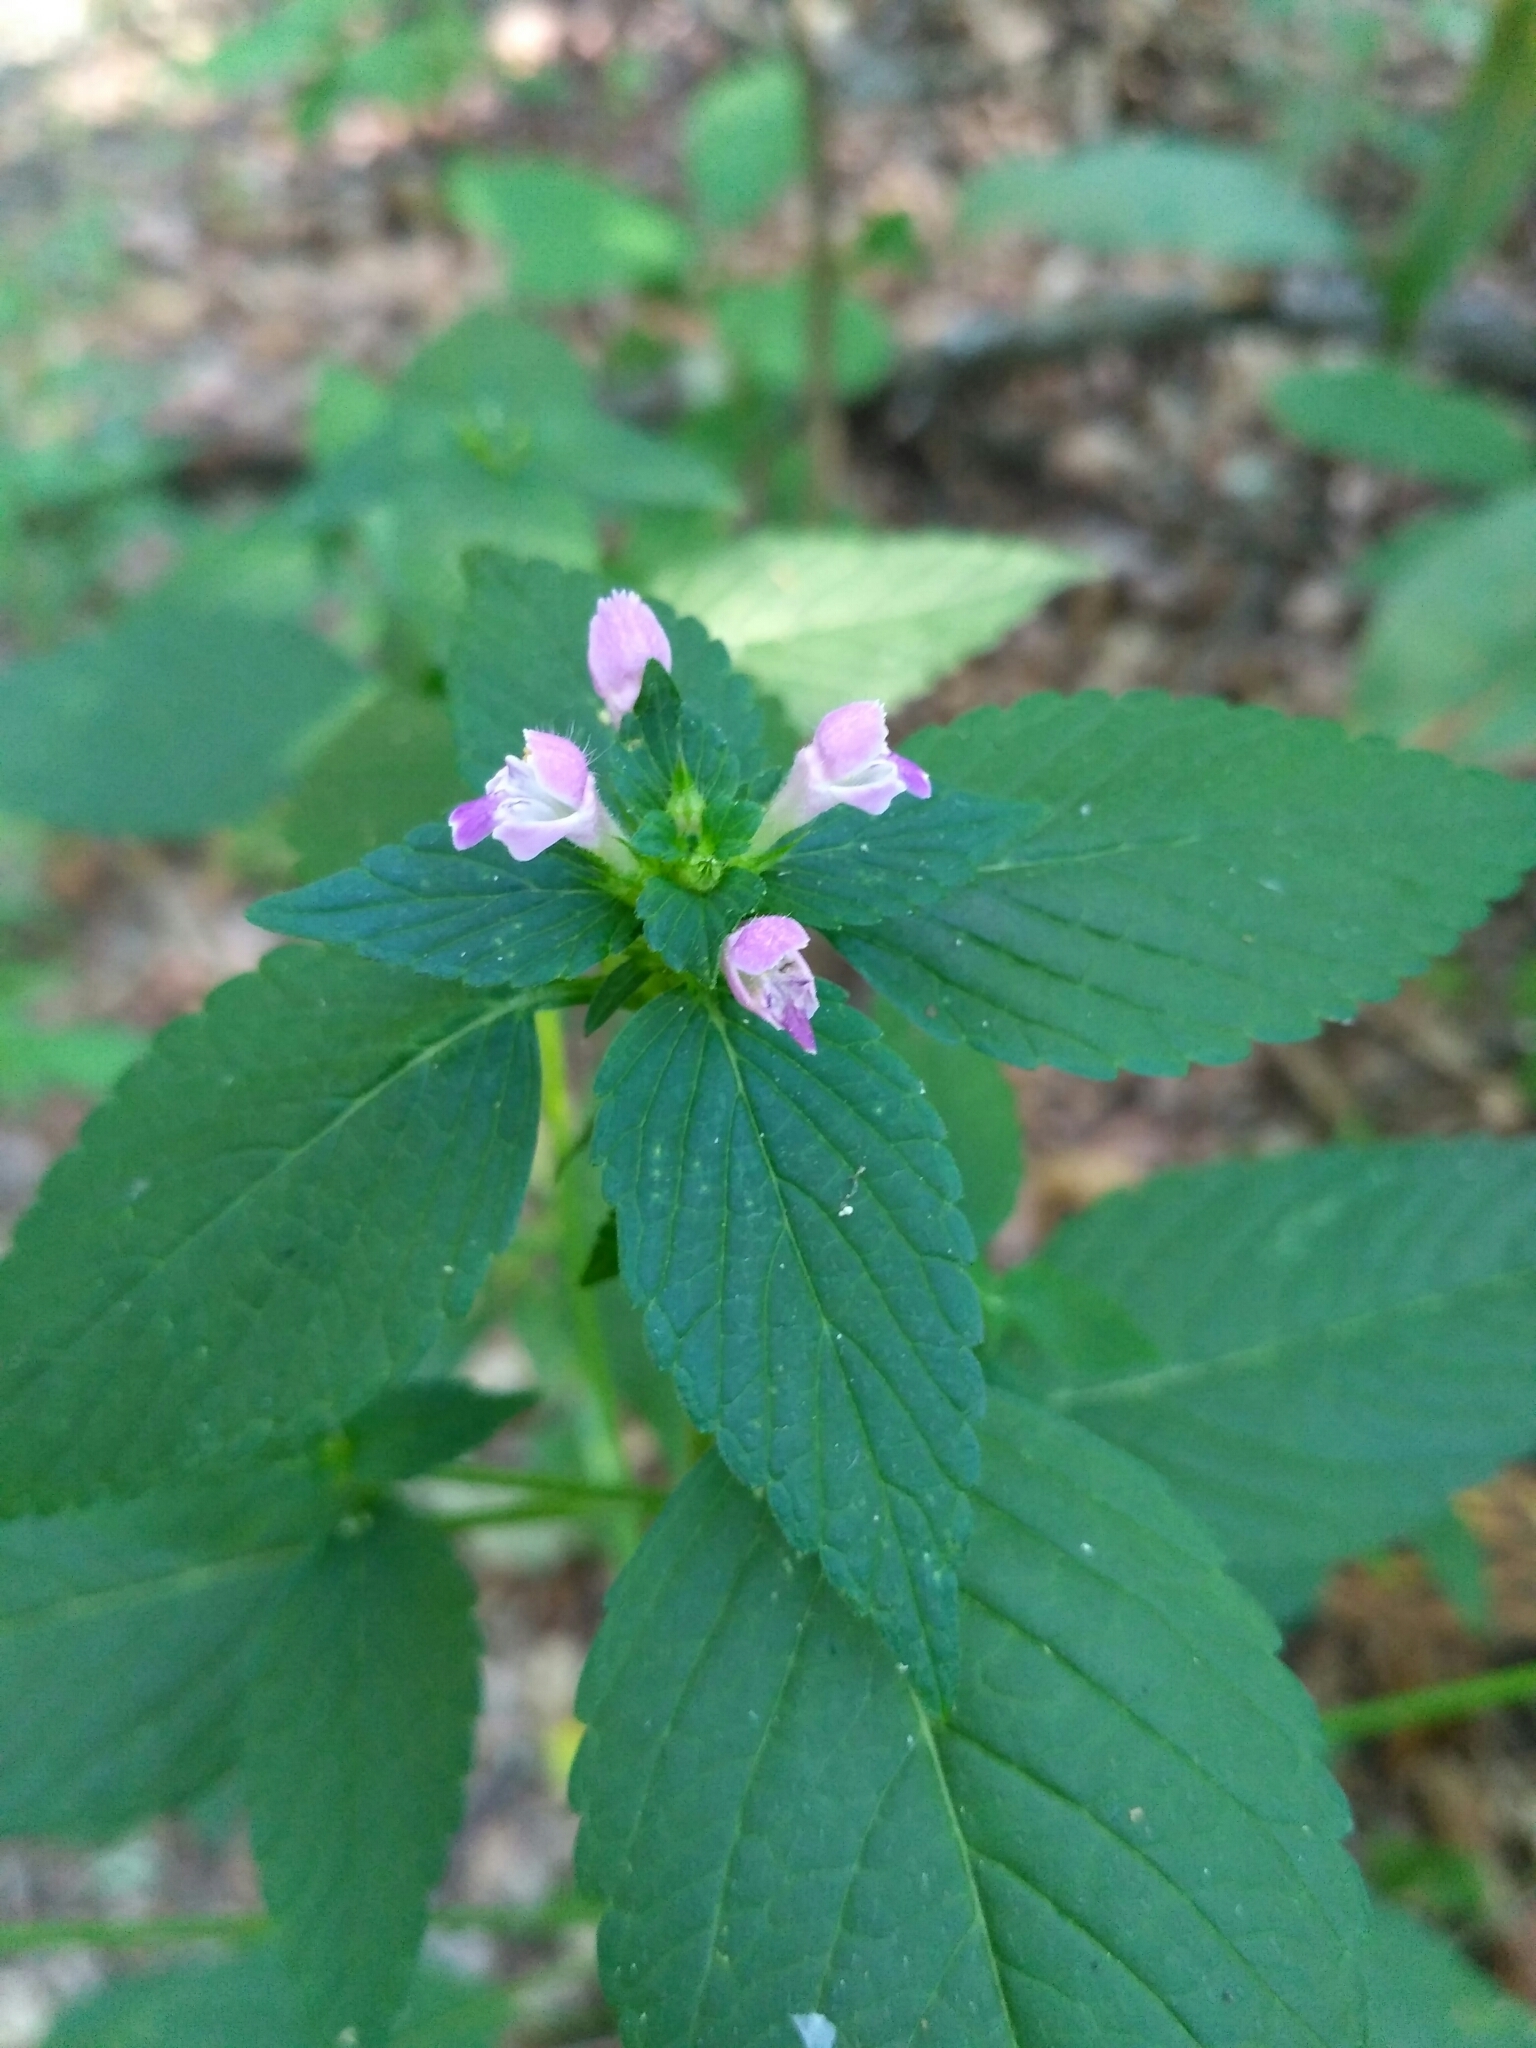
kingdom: Plantae
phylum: Tracheophyta
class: Magnoliopsida
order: Lamiales
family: Lamiaceae
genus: Galeopsis
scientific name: Galeopsis bifida
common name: Bifid hemp-nettle
